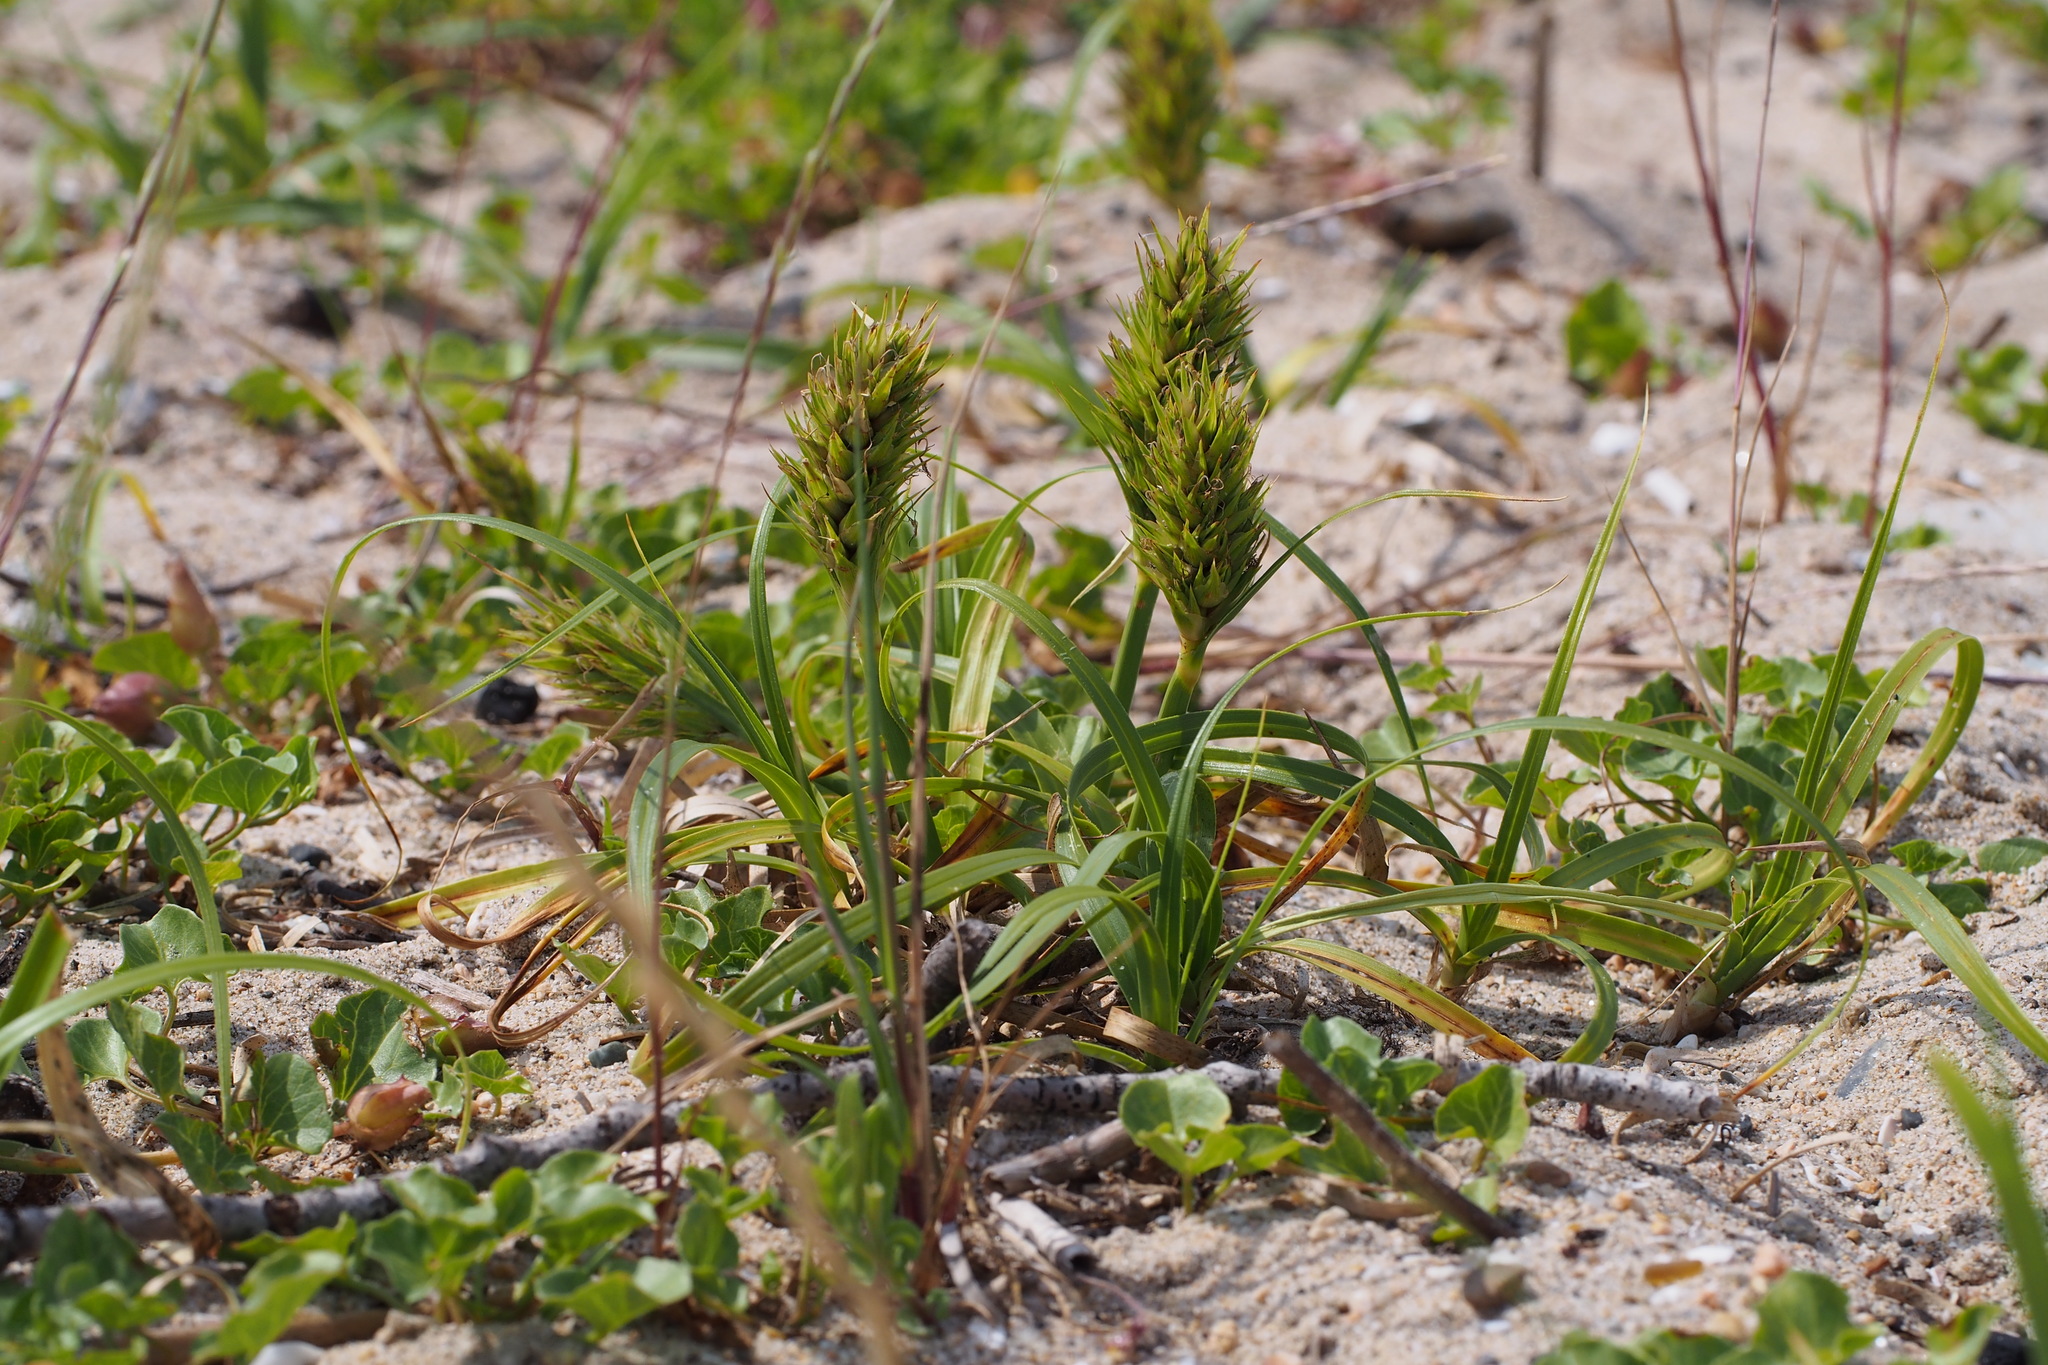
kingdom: Plantae
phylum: Tracheophyta
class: Liliopsida
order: Poales
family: Cyperaceae
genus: Carex
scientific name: Carex kobomugi
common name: Japanese sedge
